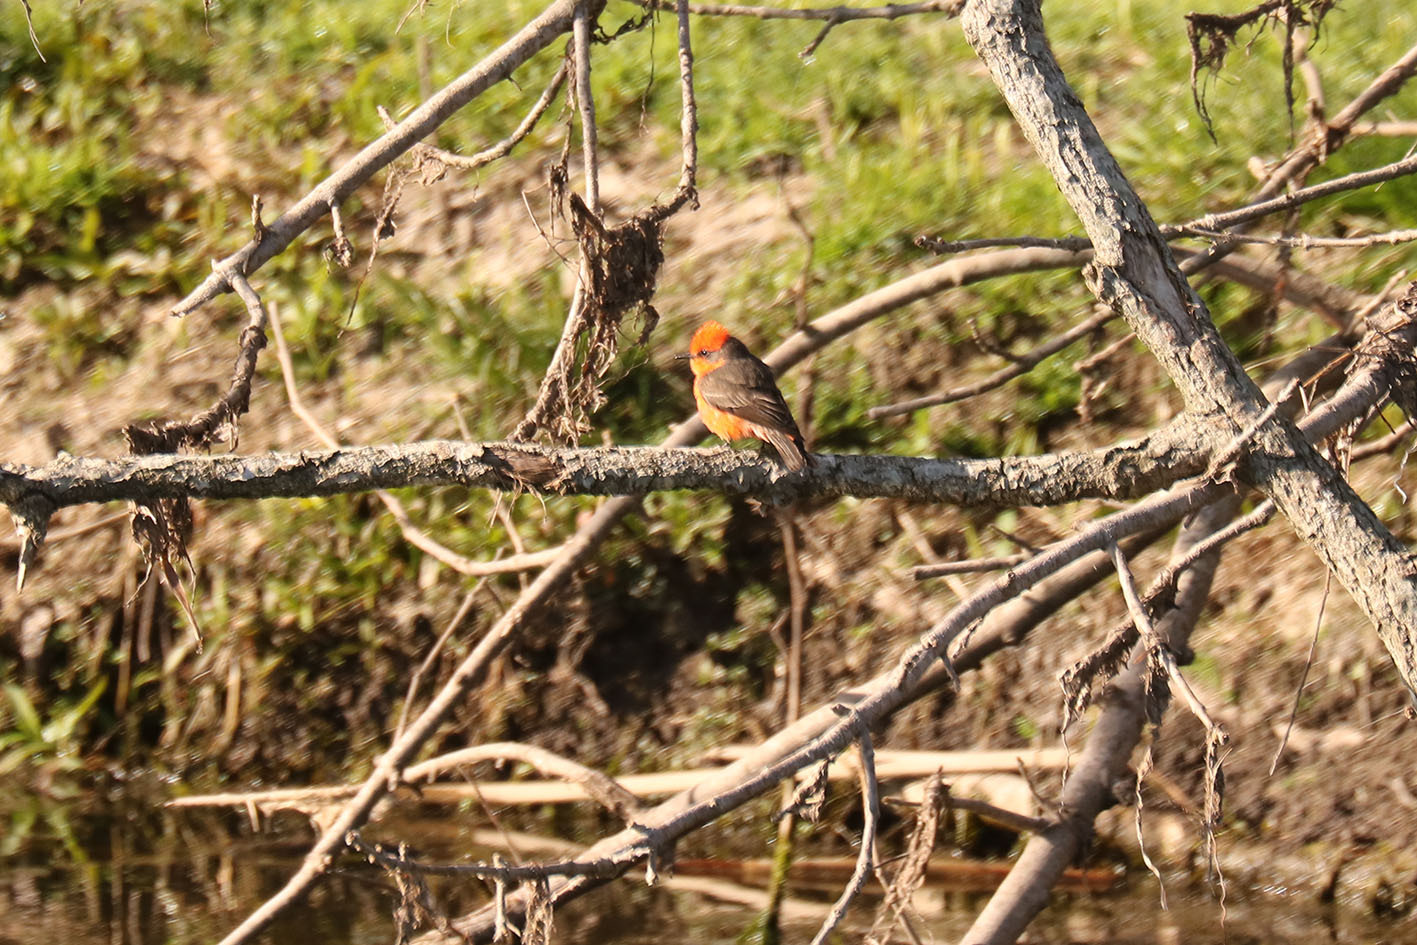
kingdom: Animalia
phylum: Chordata
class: Aves
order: Passeriformes
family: Tyrannidae
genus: Pyrocephalus
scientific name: Pyrocephalus rubinus
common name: Vermilion flycatcher
